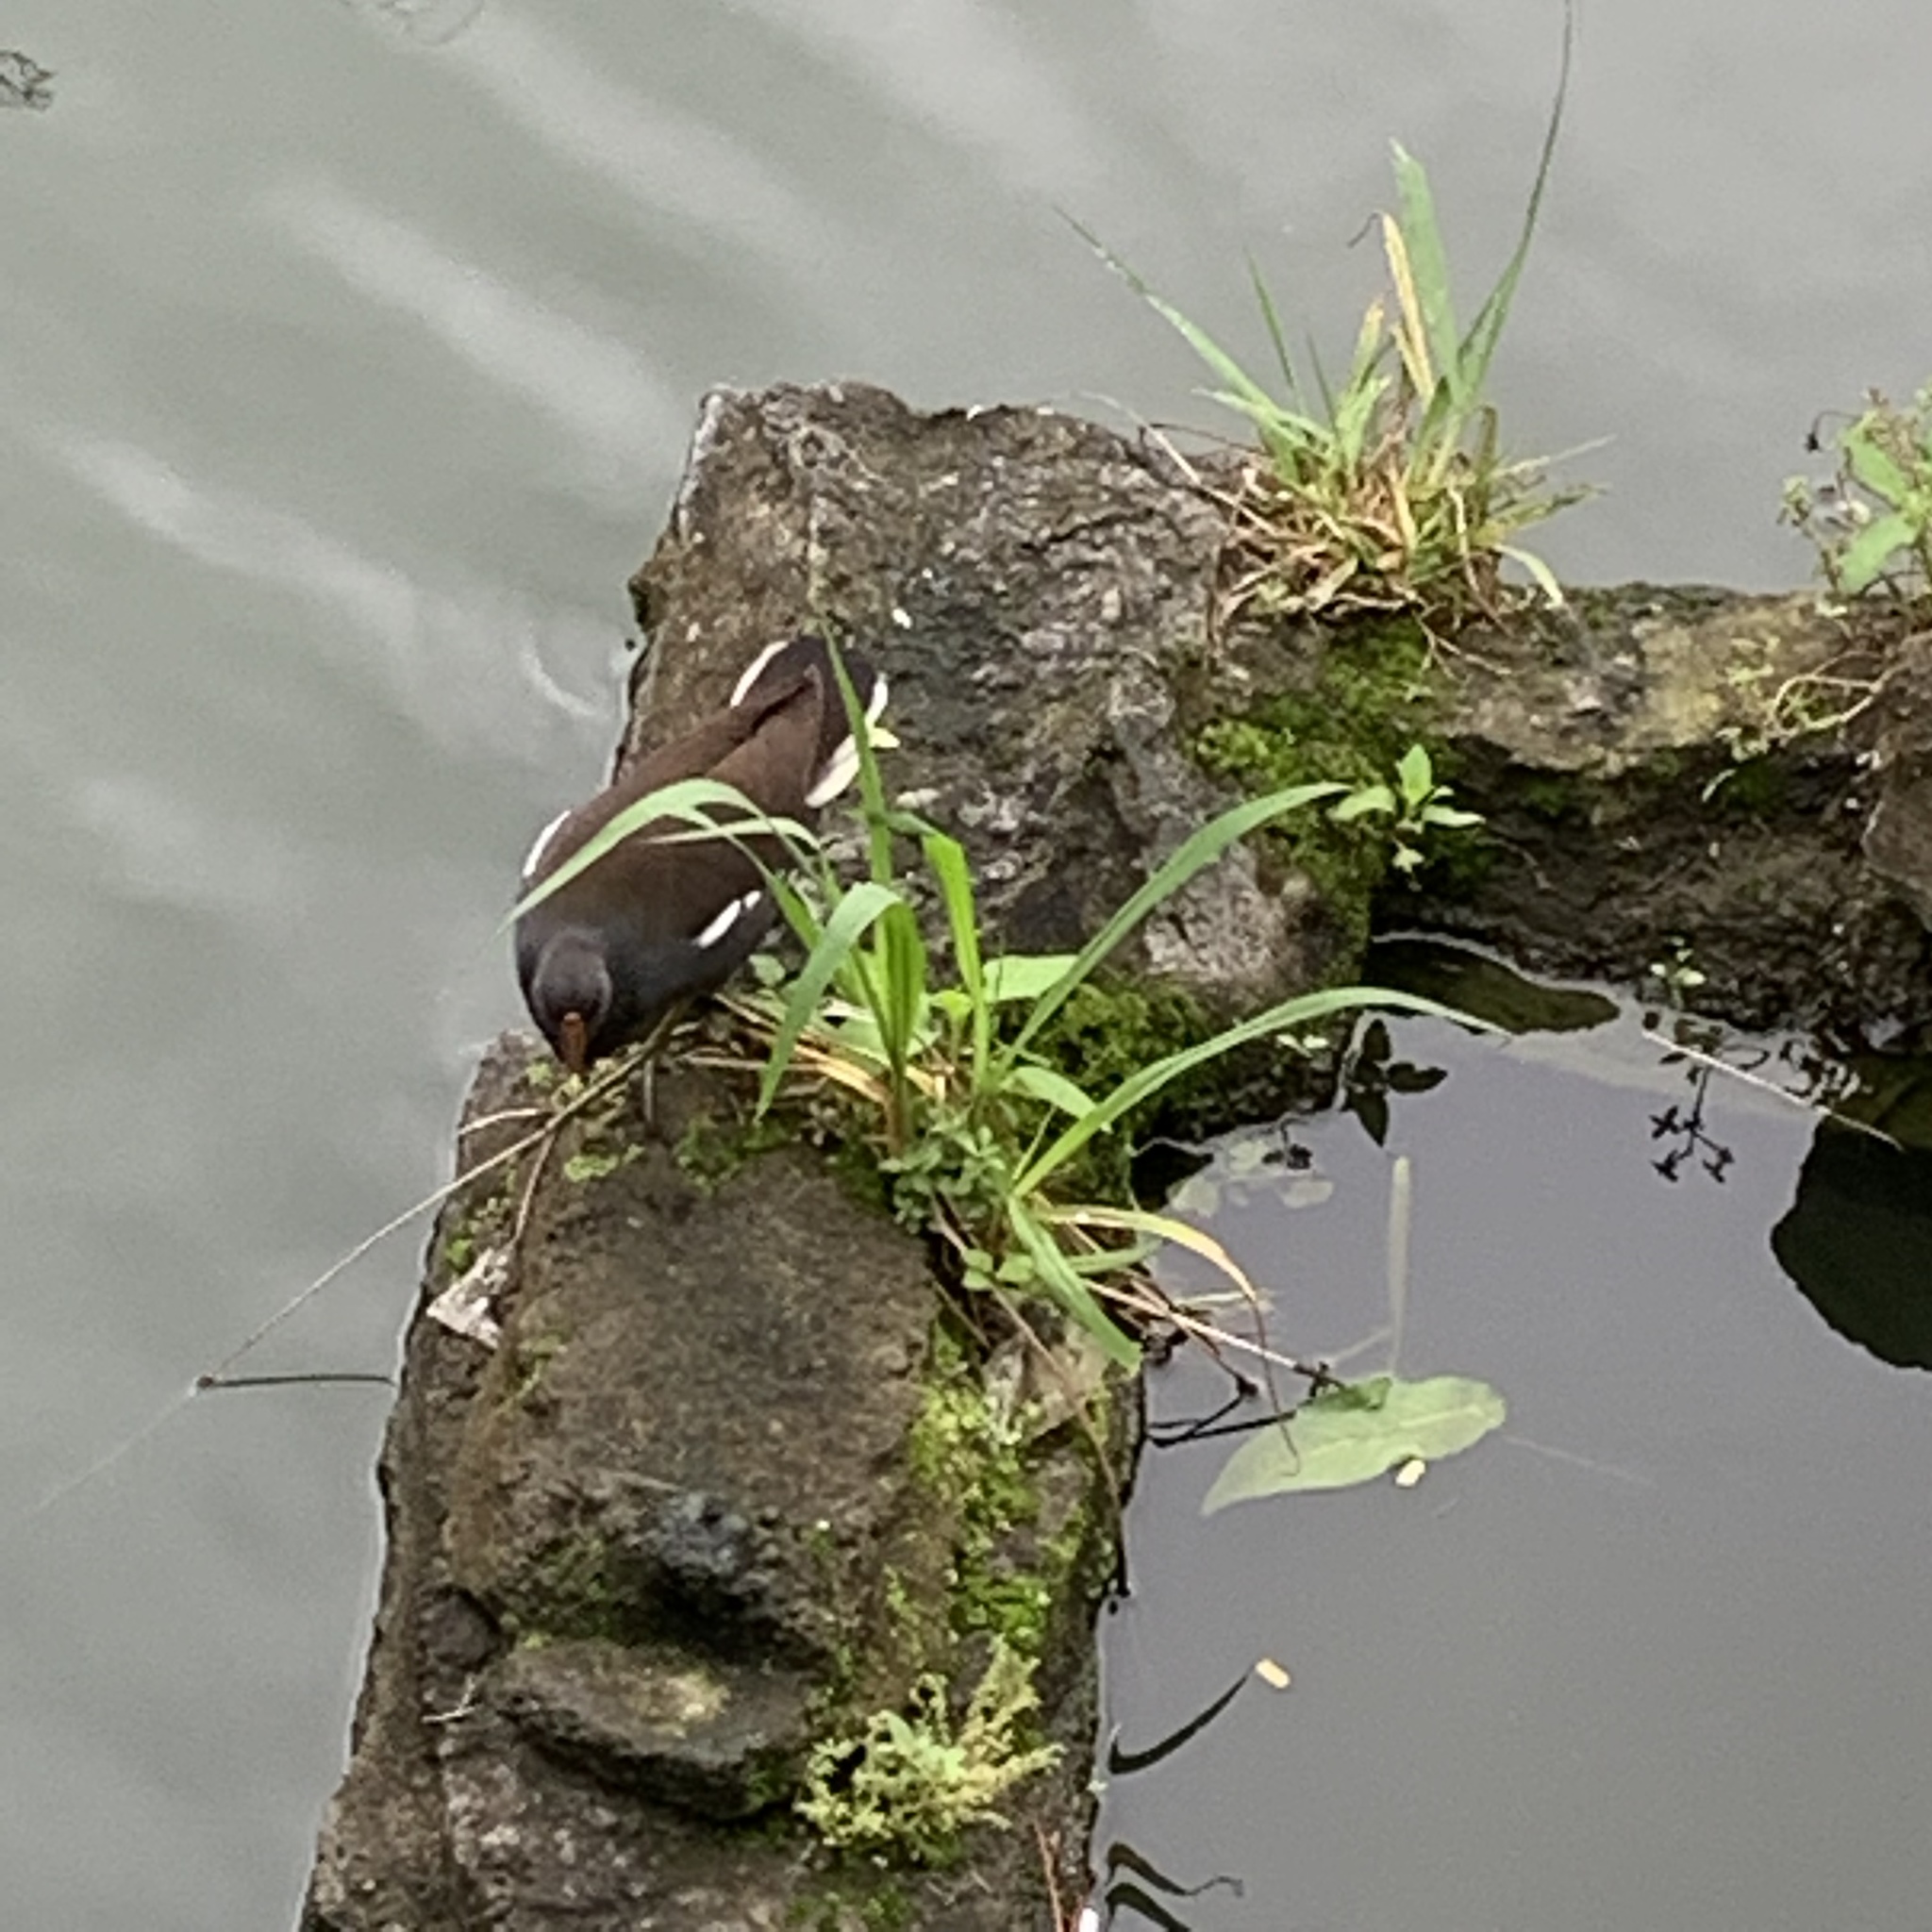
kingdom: Animalia
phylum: Chordata
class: Aves
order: Gruiformes
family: Rallidae
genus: Gallinula
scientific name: Gallinula chloropus
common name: Common moorhen
